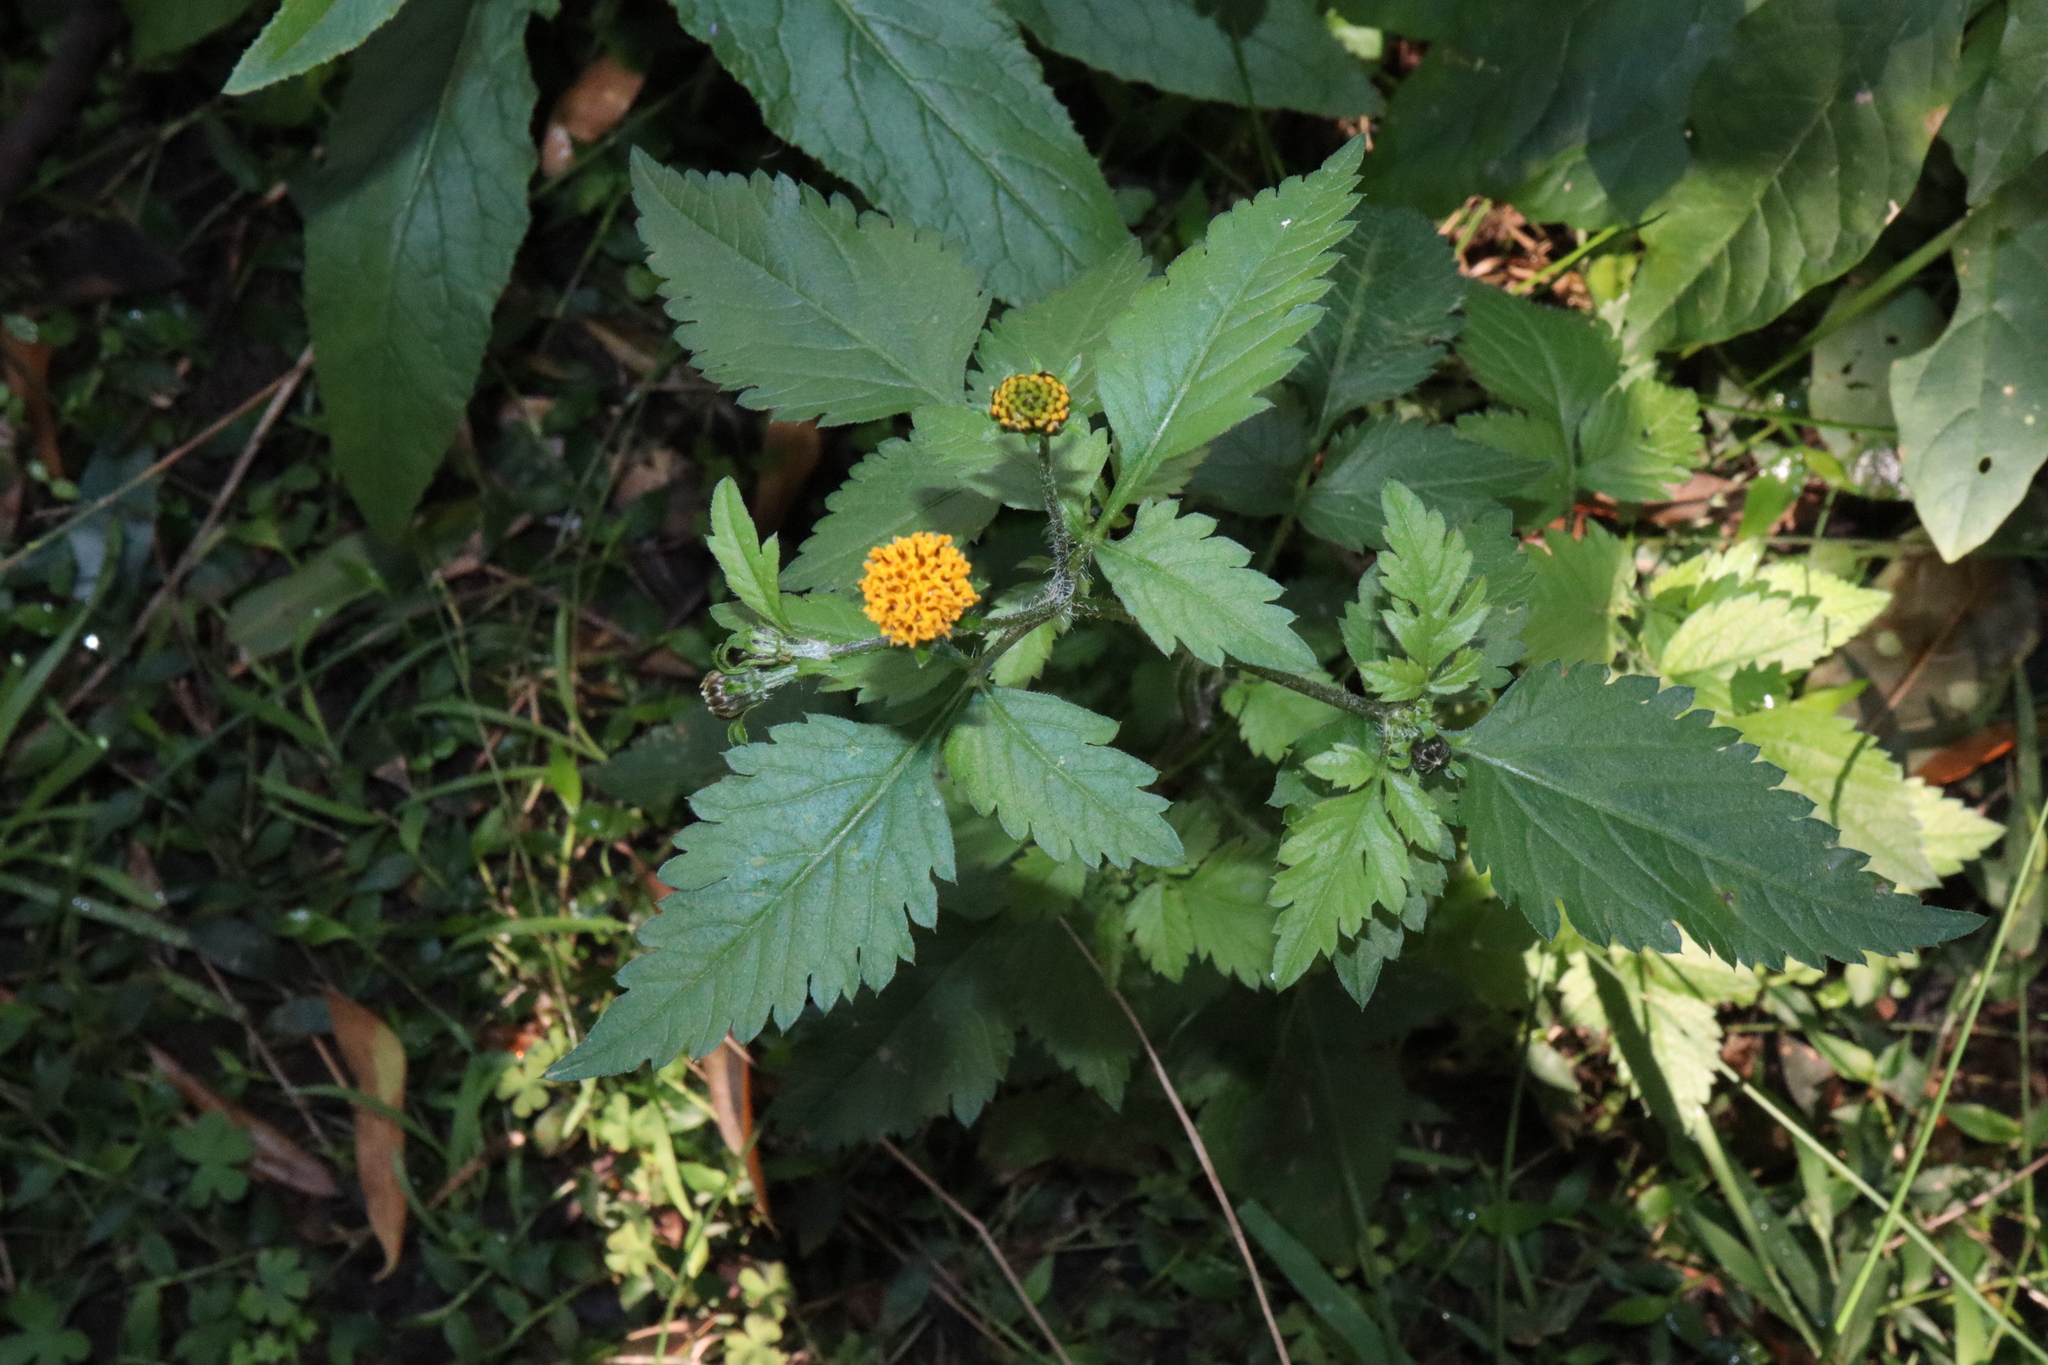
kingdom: Plantae
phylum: Tracheophyta
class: Magnoliopsida
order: Asterales
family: Asteraceae
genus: Bidens
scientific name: Bidens pilosa
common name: Black-jack
